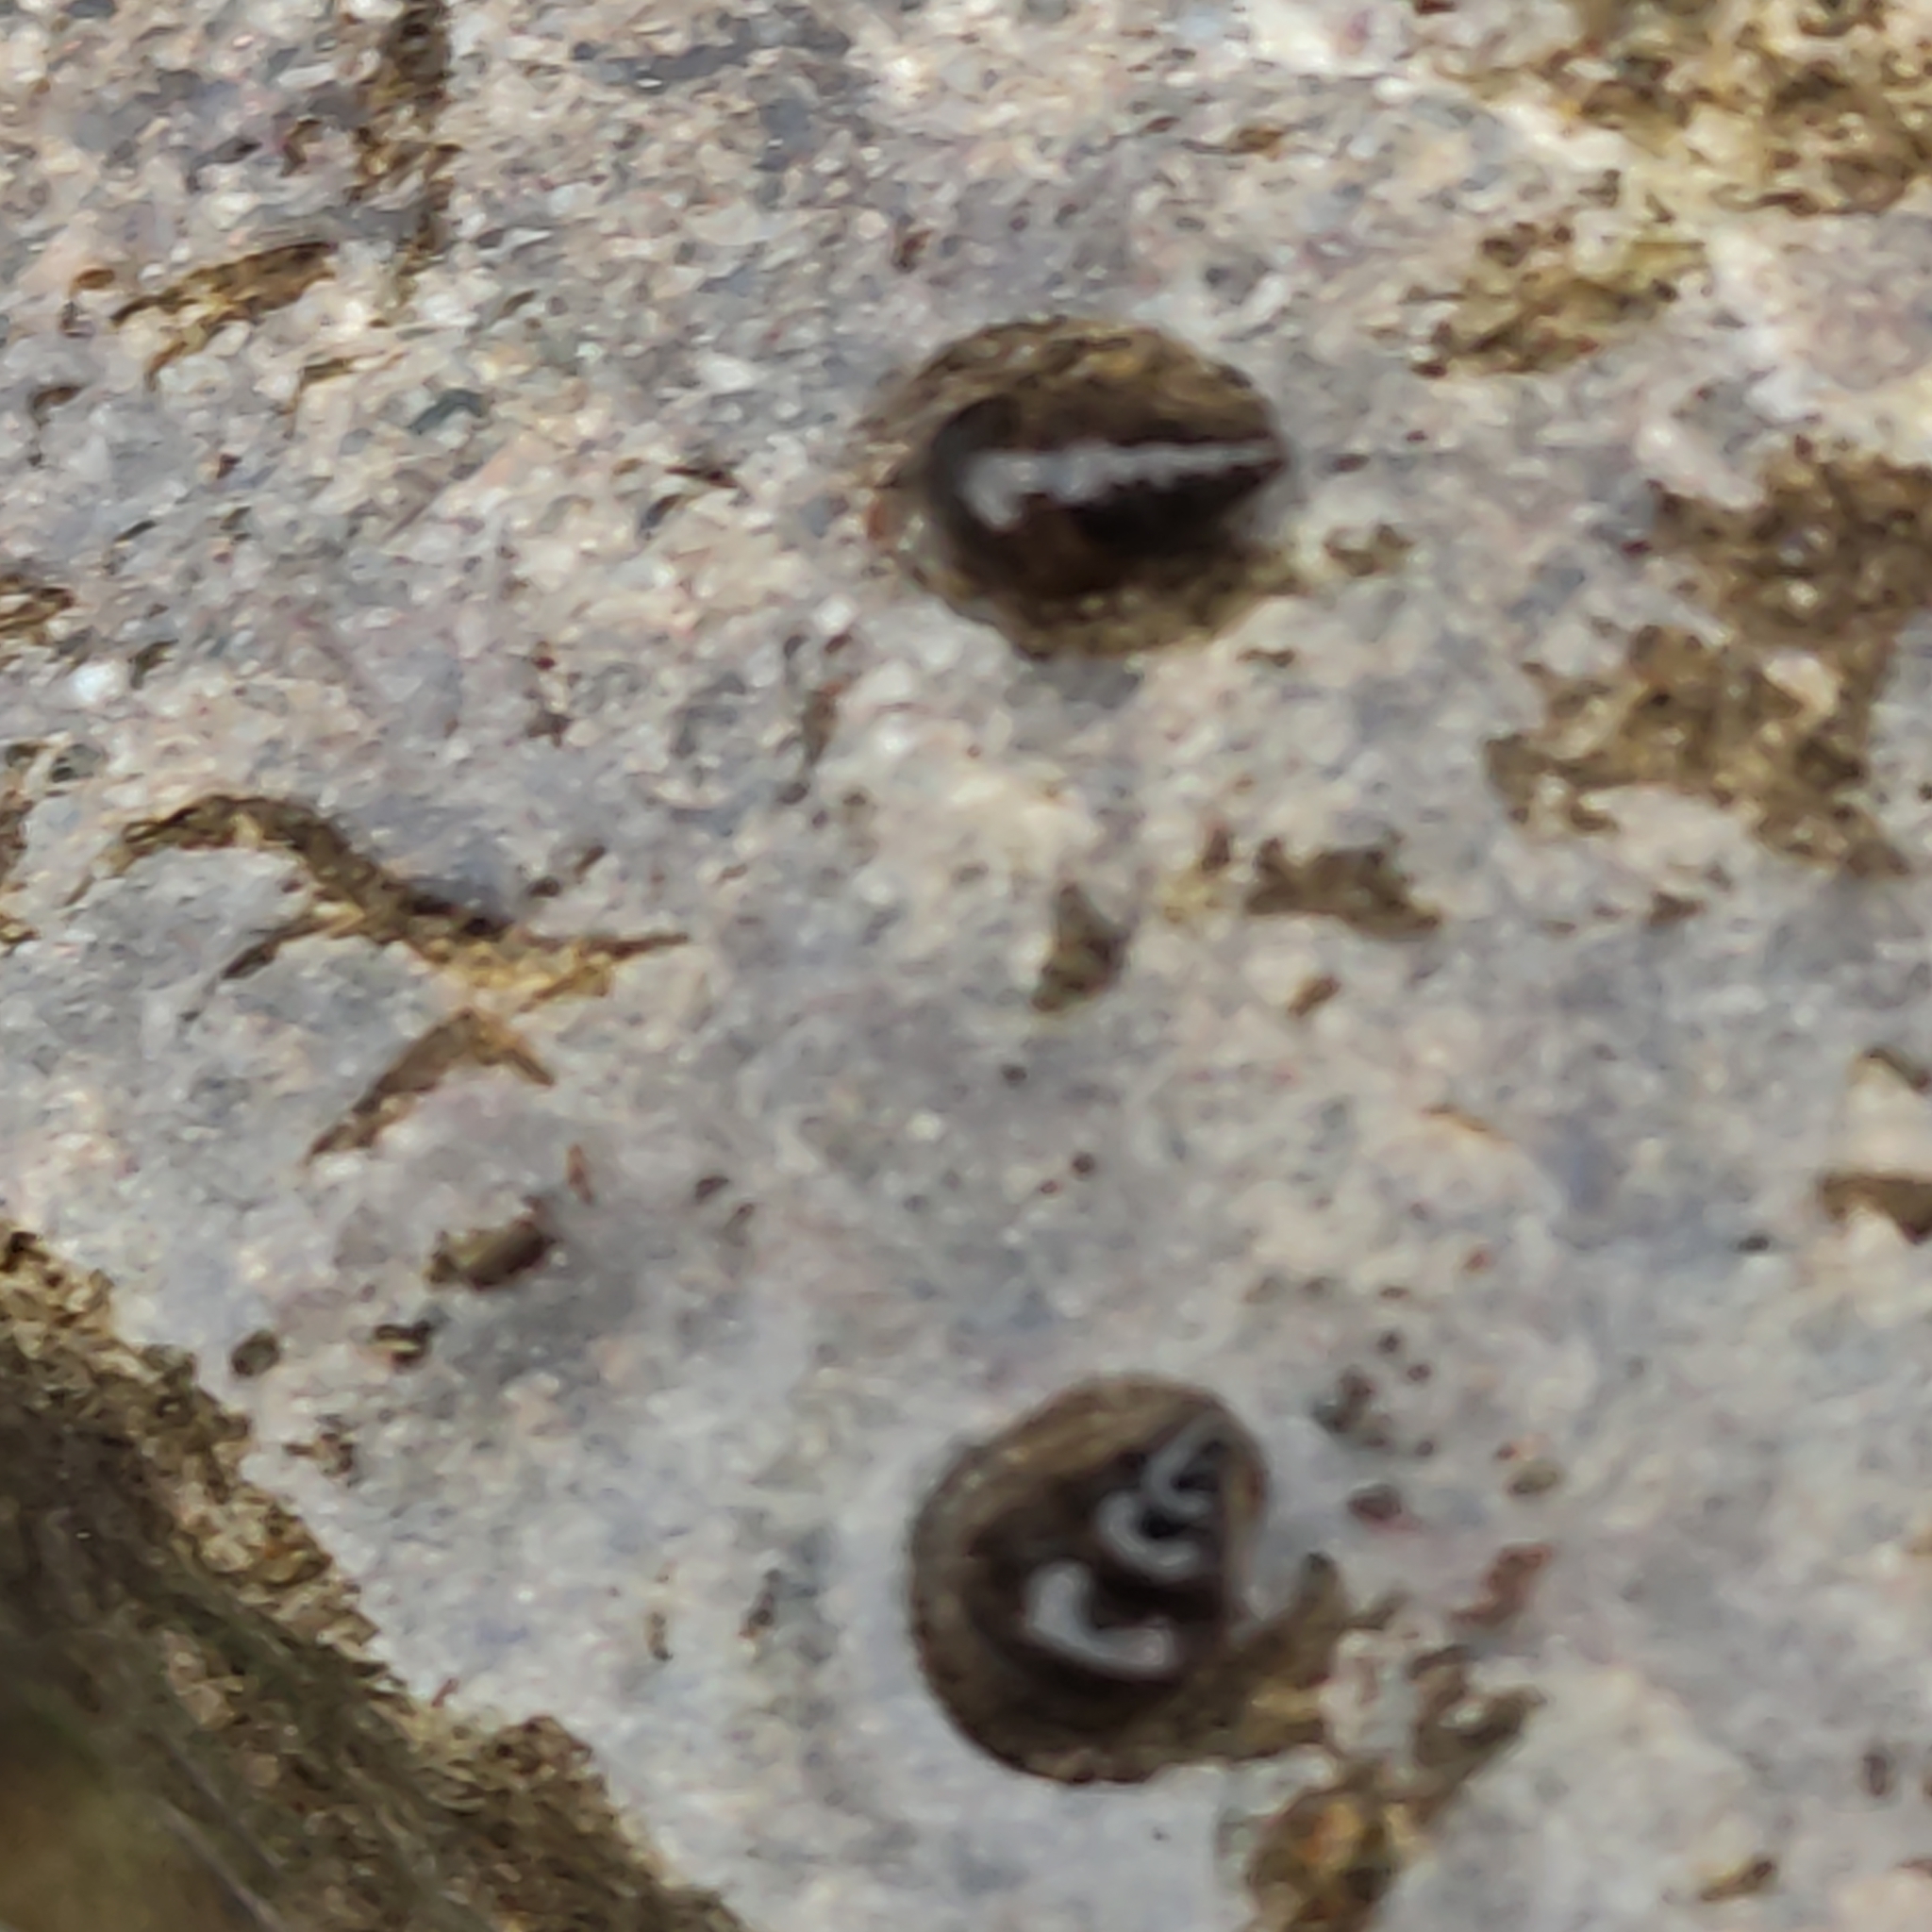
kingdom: Animalia
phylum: Mollusca
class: Gastropoda
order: Littorinimorpha
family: Tateidae
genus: Potamopyrgus
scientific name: Potamopyrgus antipodarum
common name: Jenkins' spire snail
